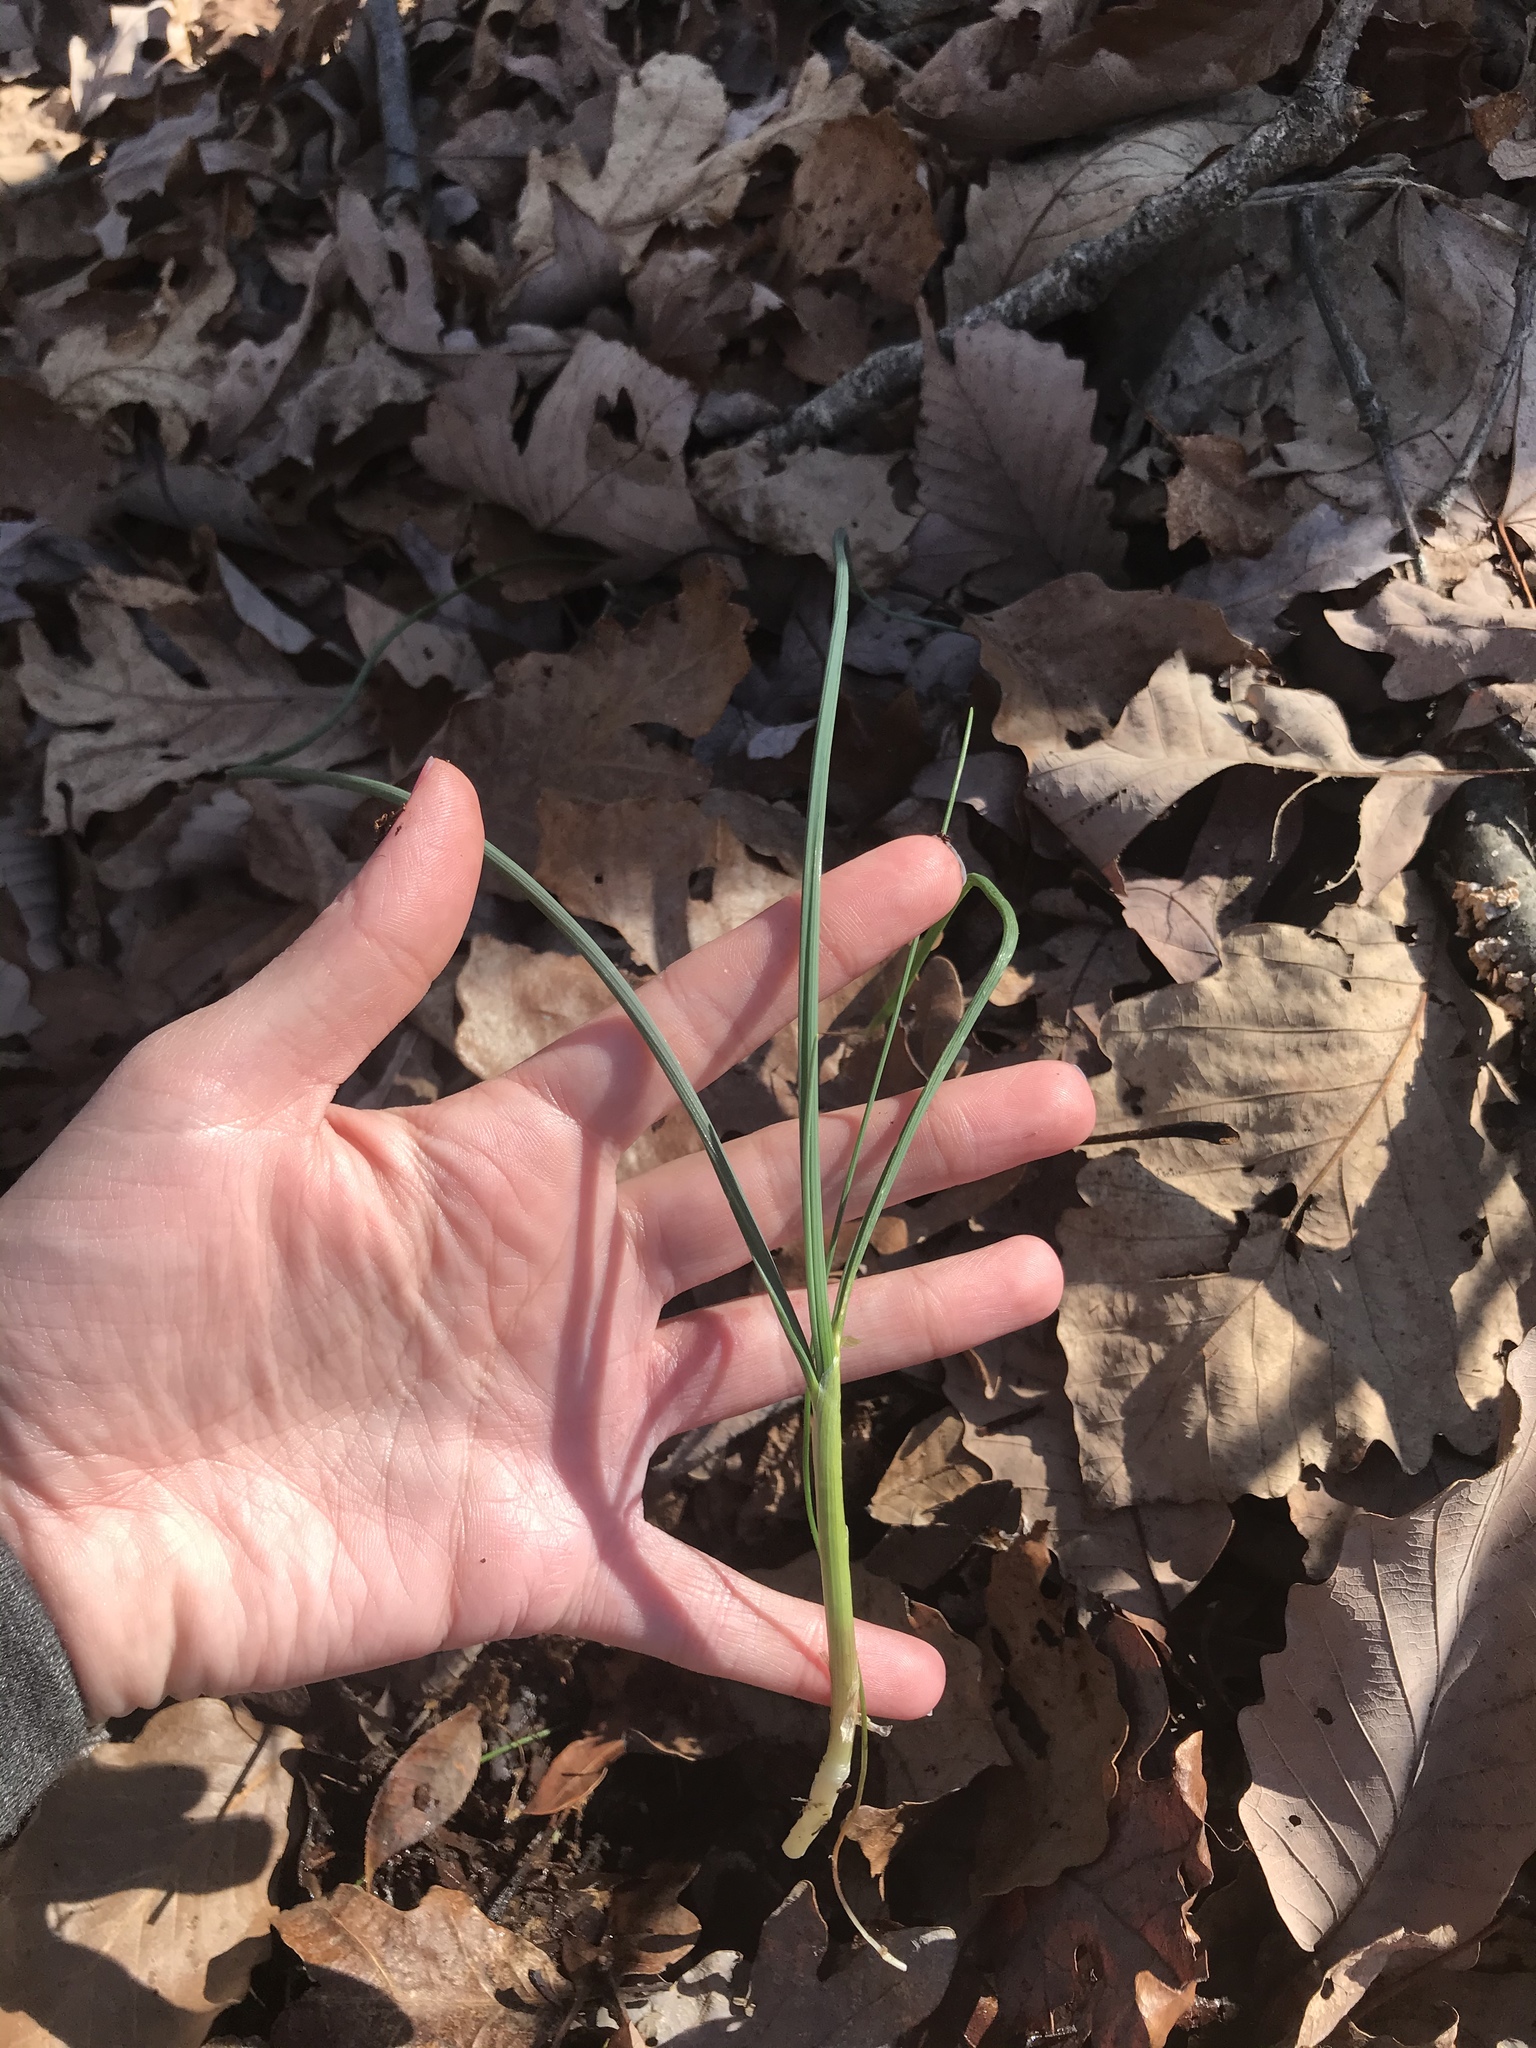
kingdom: Plantae
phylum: Tracheophyta
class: Liliopsida
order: Asparagales
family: Amaryllidaceae
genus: Allium
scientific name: Allium vineale
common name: Crow garlic
